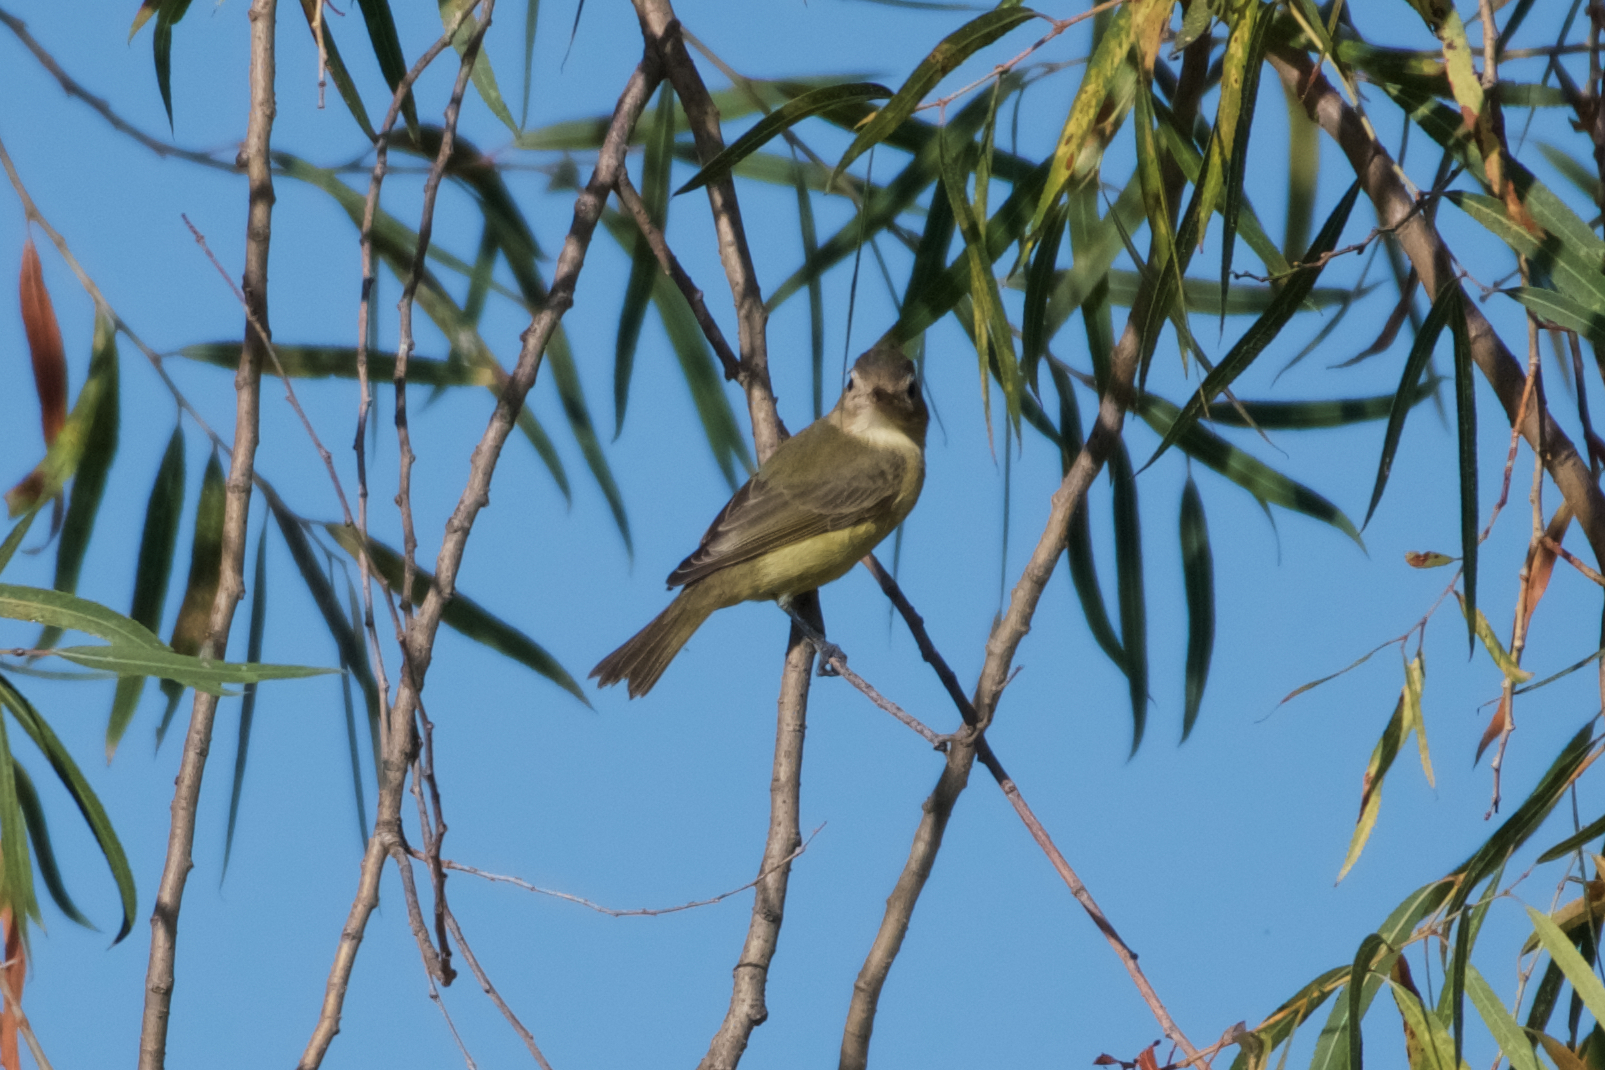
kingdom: Animalia
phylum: Chordata
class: Aves
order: Passeriformes
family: Vireonidae
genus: Vireo
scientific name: Vireo gilvus
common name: Warbling vireo
